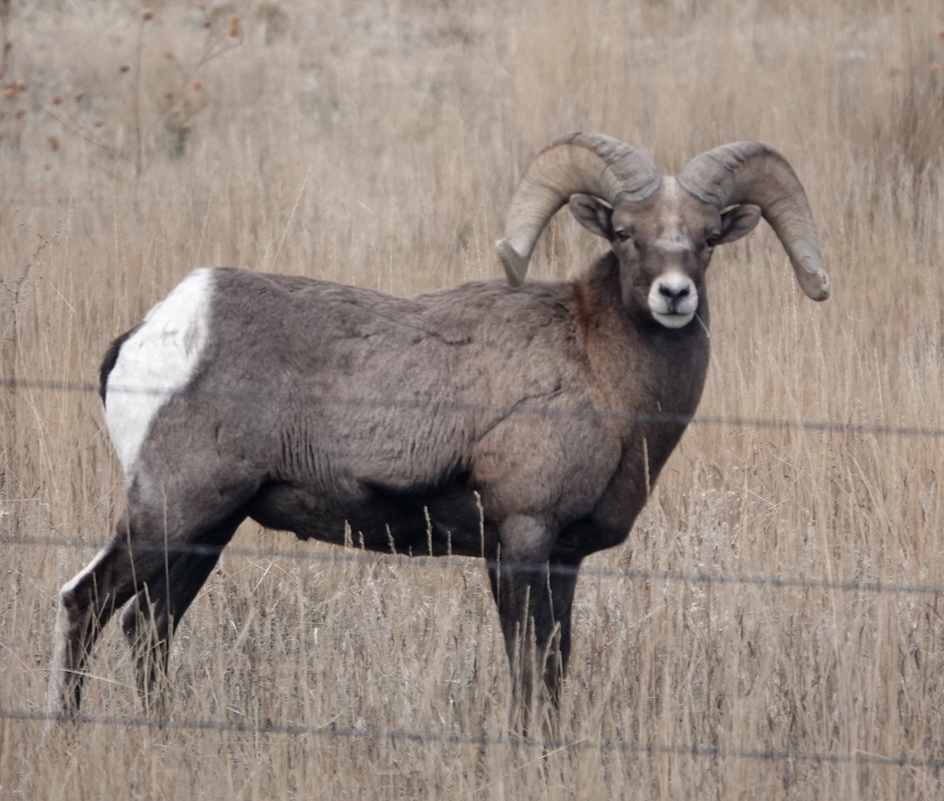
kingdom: Animalia
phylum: Chordata
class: Mammalia
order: Artiodactyla
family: Bovidae
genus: Ovis
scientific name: Ovis canadensis
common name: Bighorn sheep
